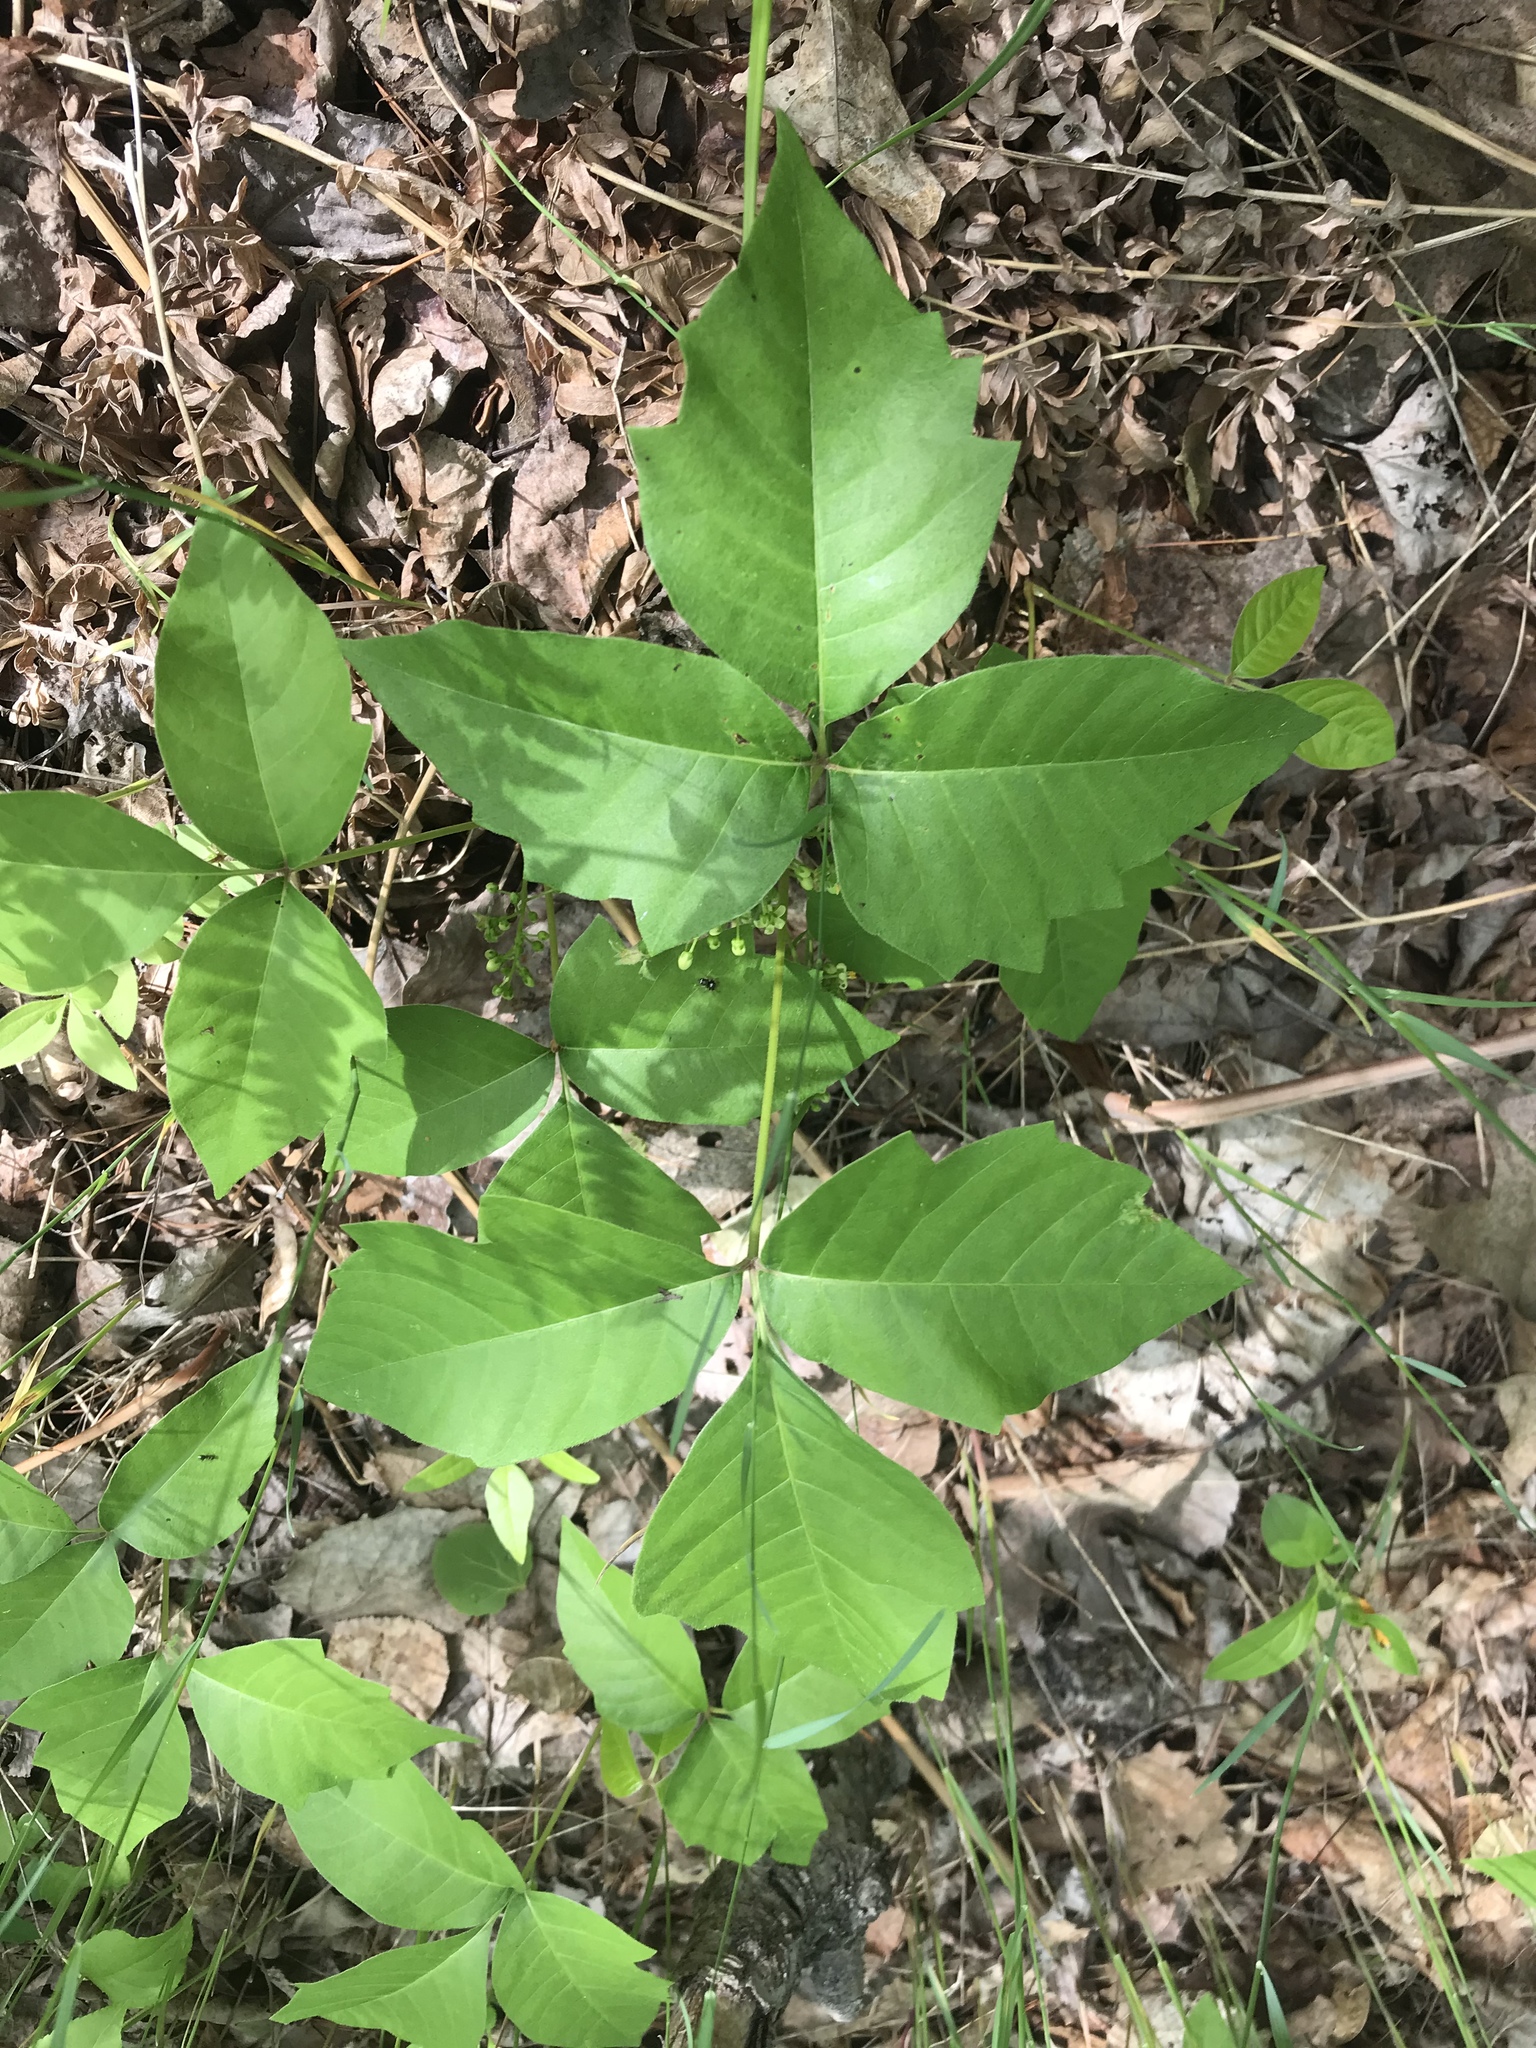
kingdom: Plantae
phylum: Tracheophyta
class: Magnoliopsida
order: Sapindales
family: Anacardiaceae
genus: Toxicodendron
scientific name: Toxicodendron rydbergii
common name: Rydberg's poison-ivy
